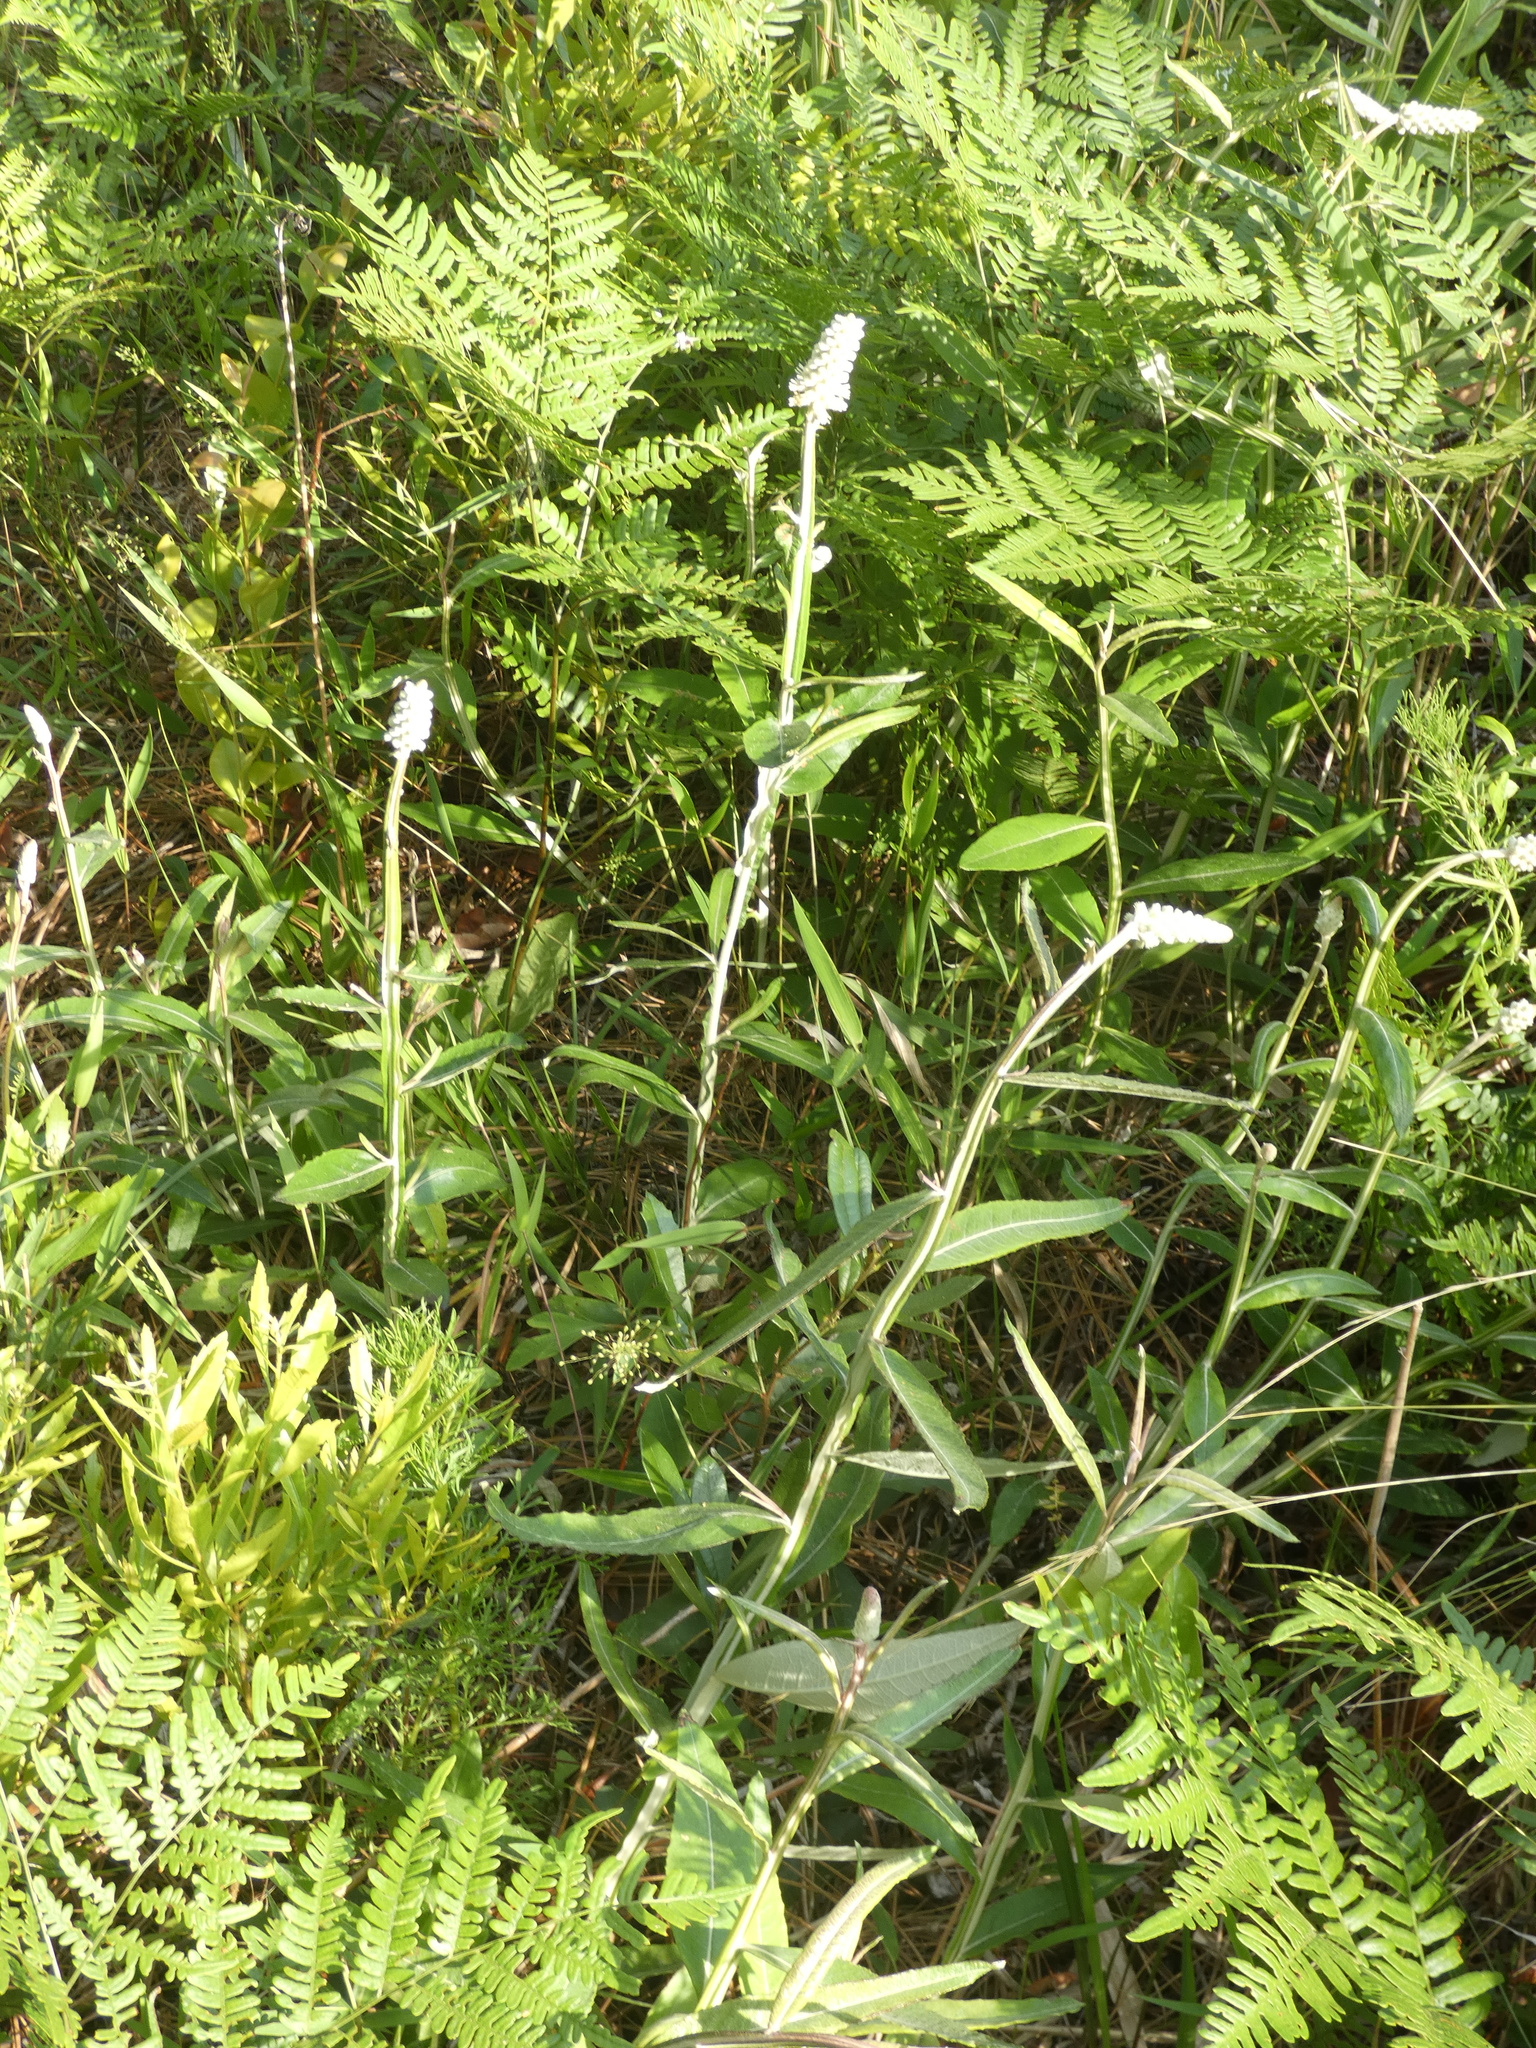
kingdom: Plantae
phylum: Tracheophyta
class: Magnoliopsida
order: Asterales
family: Asteraceae
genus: Pterocaulon
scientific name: Pterocaulon pycnostachyum
